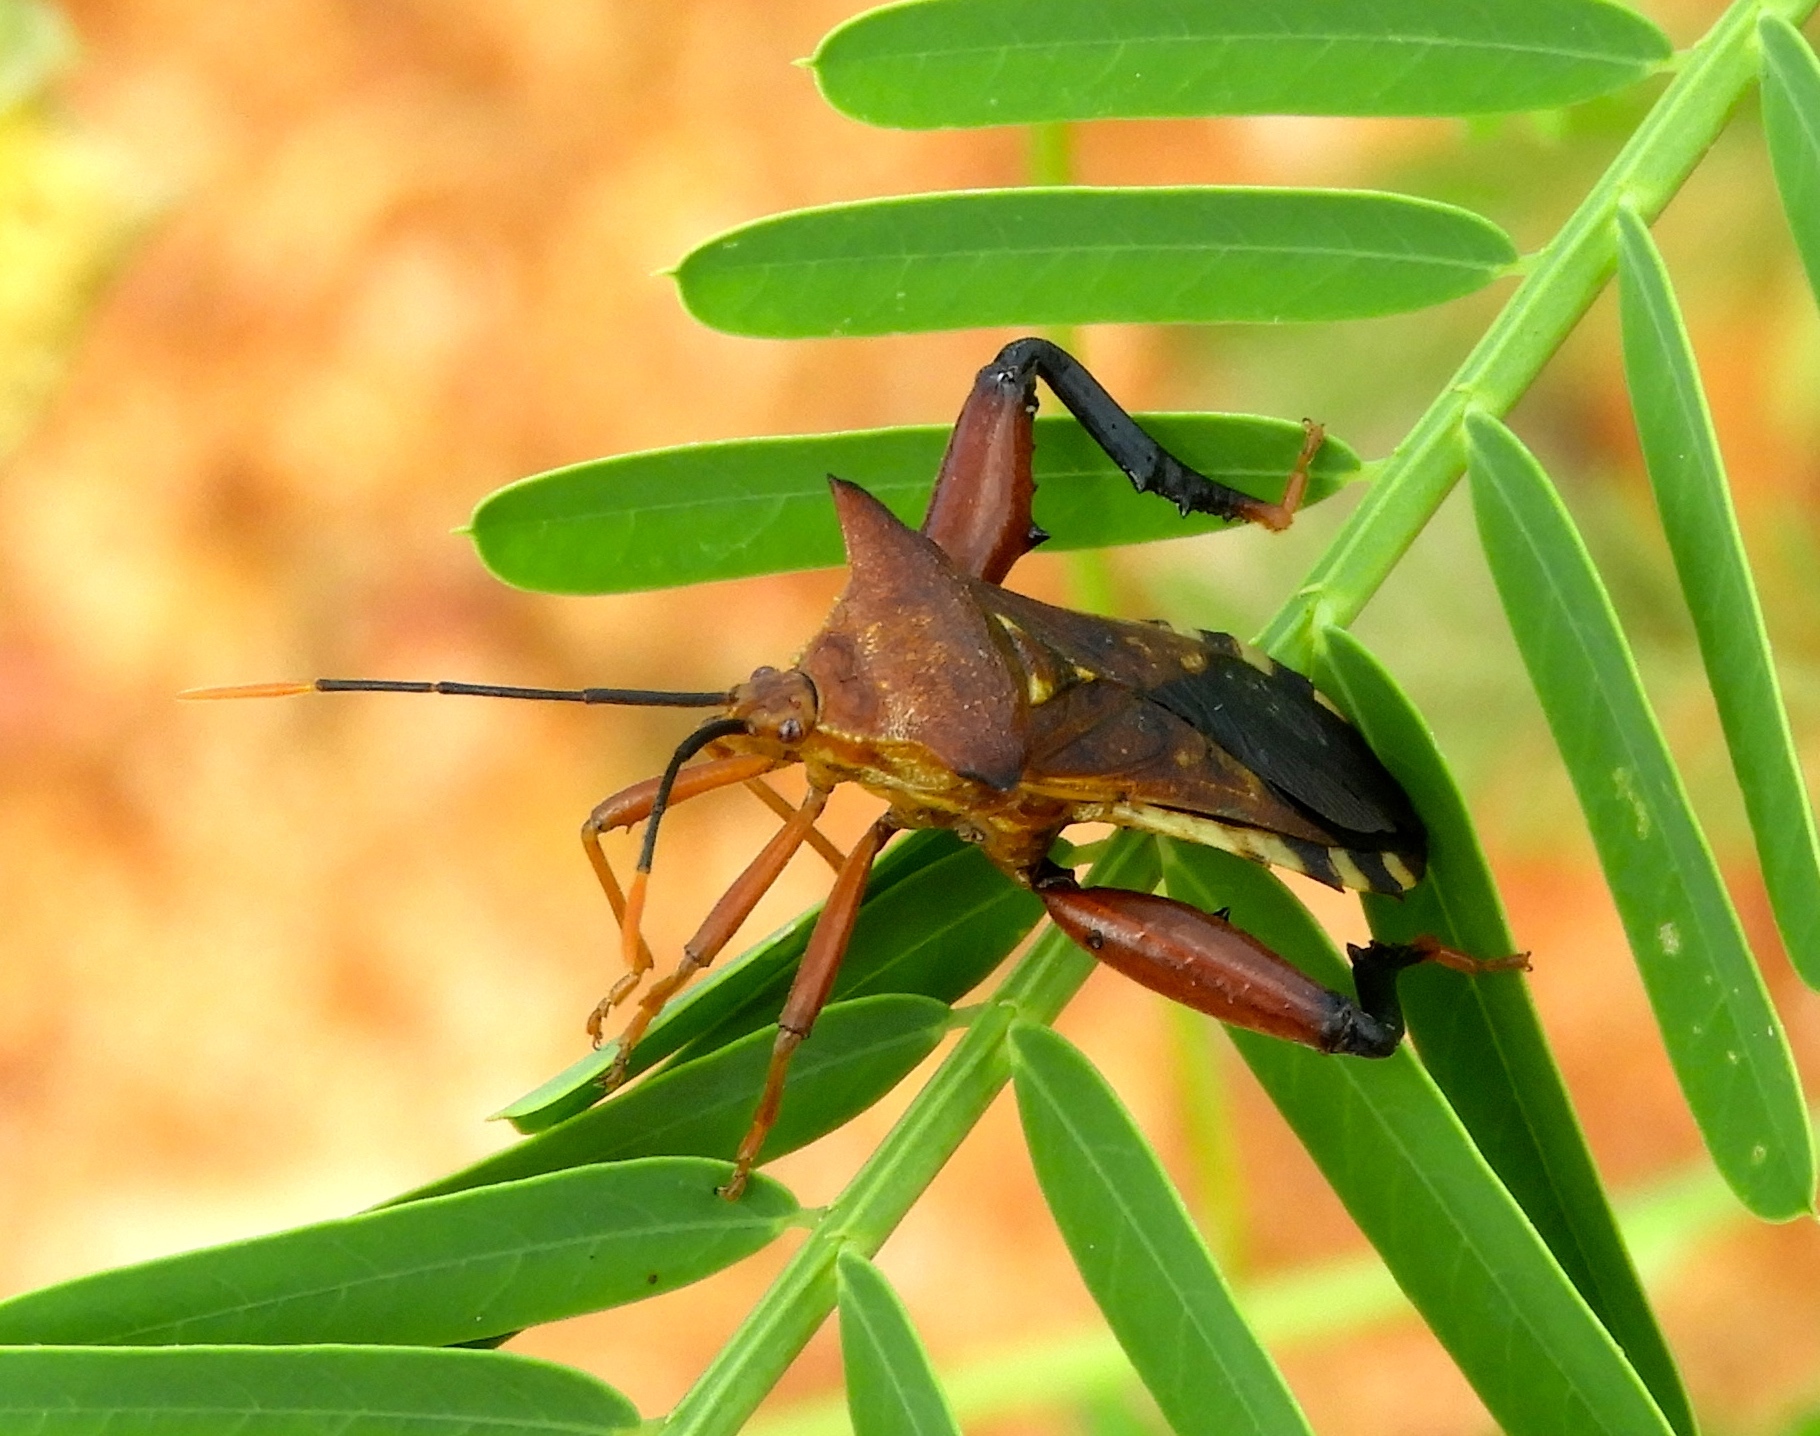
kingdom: Animalia
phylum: Arthropoda
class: Insecta
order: Hemiptera
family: Coreidae
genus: Mozena
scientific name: Mozena
